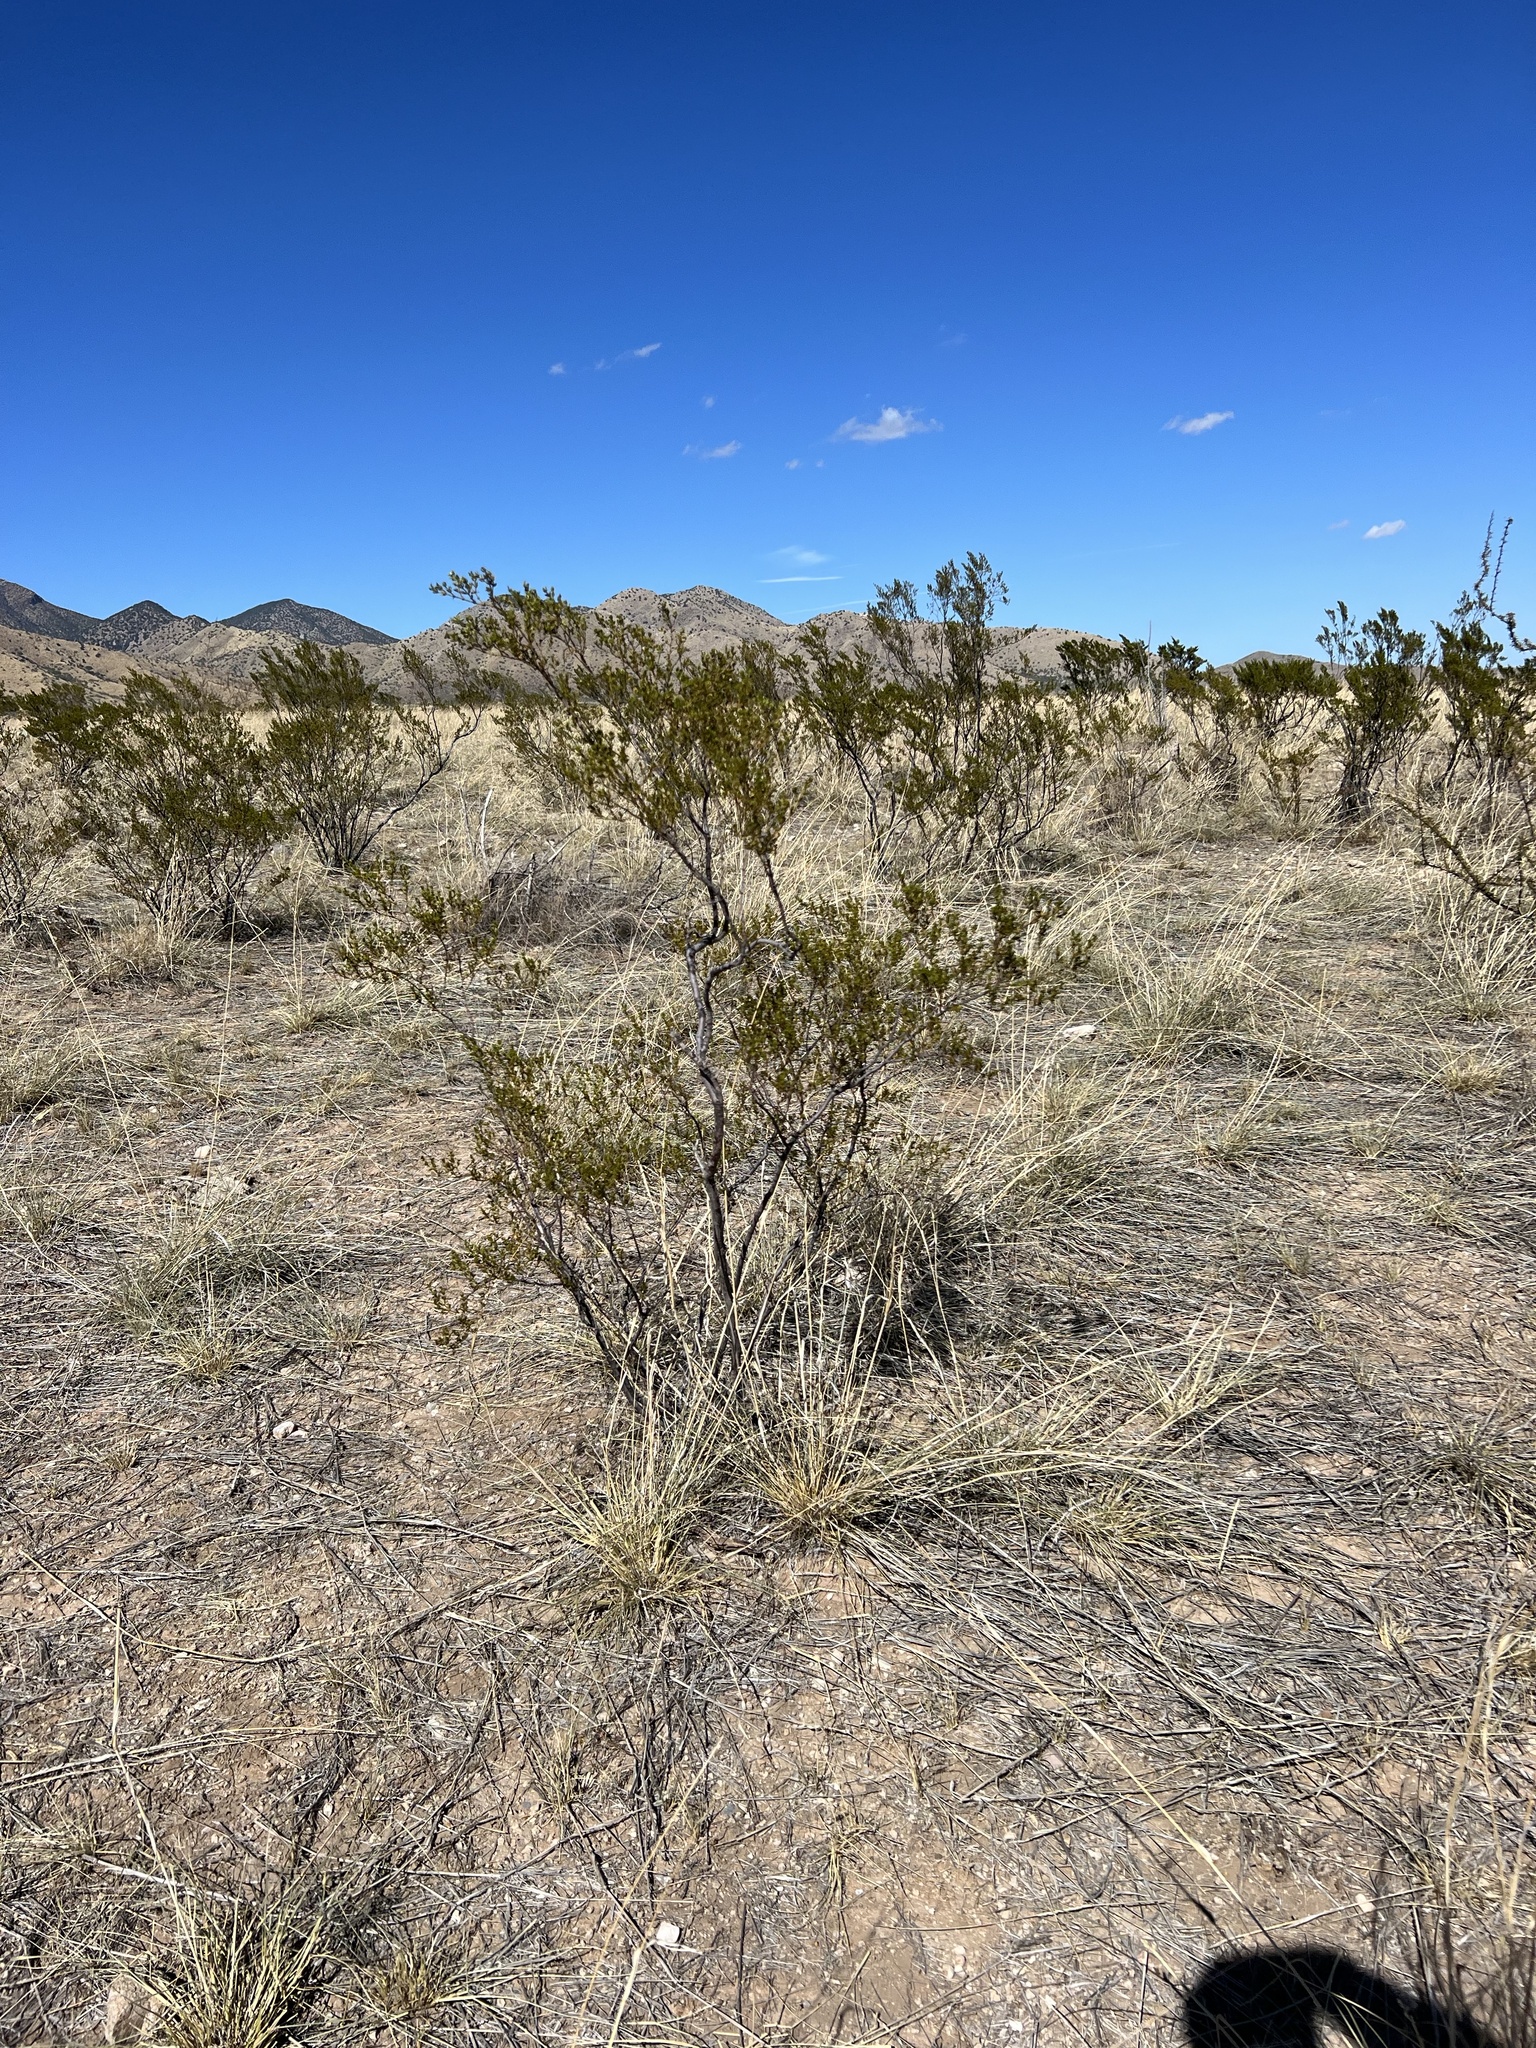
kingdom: Plantae
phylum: Tracheophyta
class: Magnoliopsida
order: Zygophyllales
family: Zygophyllaceae
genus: Larrea
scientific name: Larrea tridentata
